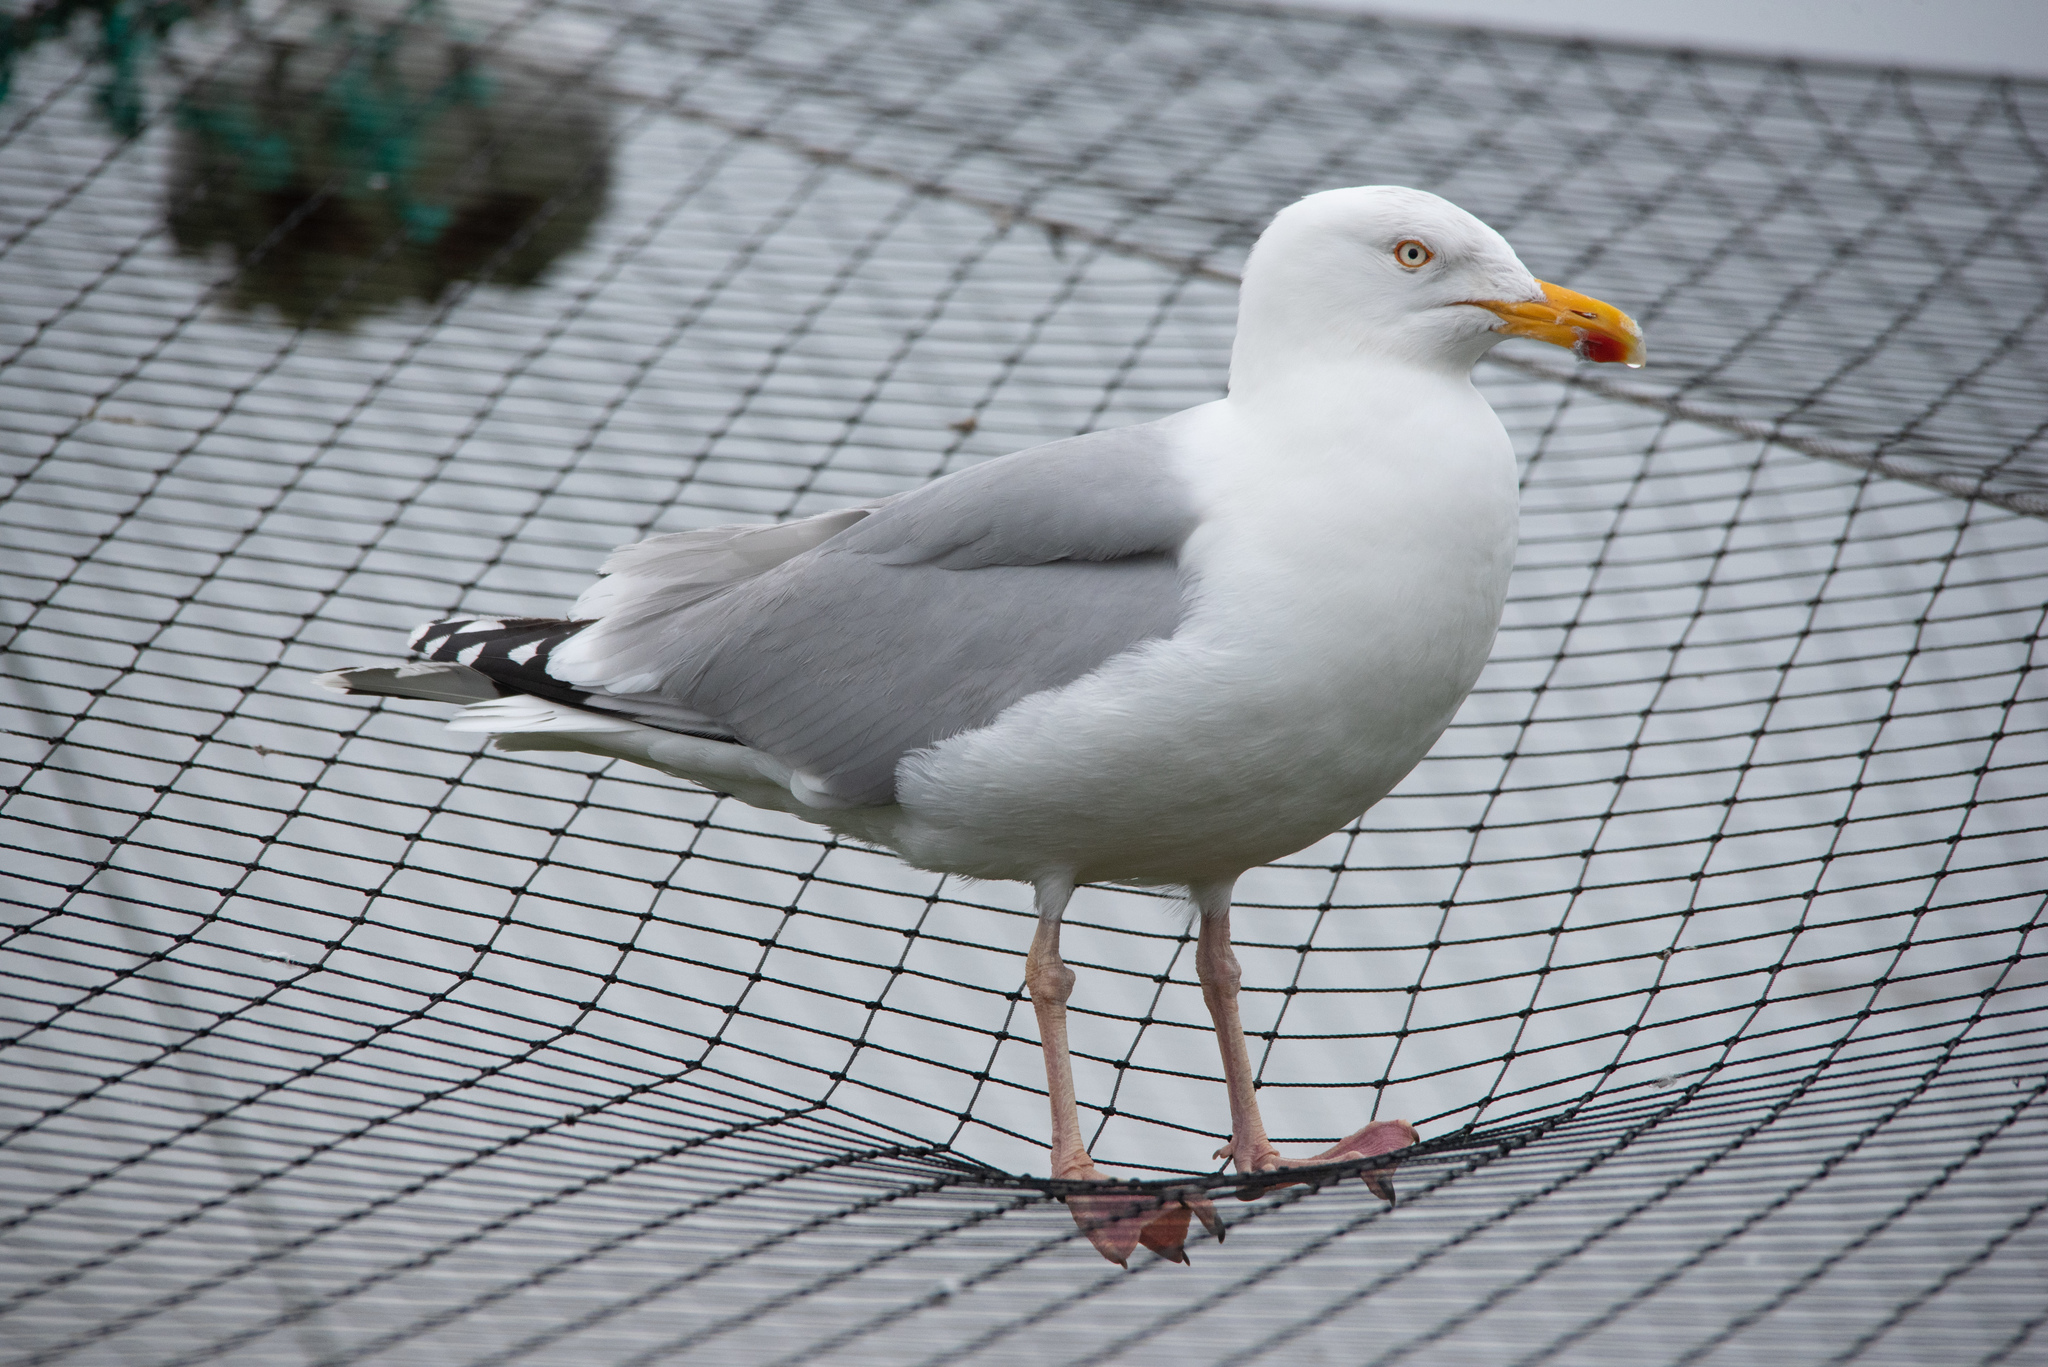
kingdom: Animalia
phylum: Chordata
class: Aves
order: Charadriiformes
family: Laridae
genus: Larus
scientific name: Larus argentatus
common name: Herring gull
